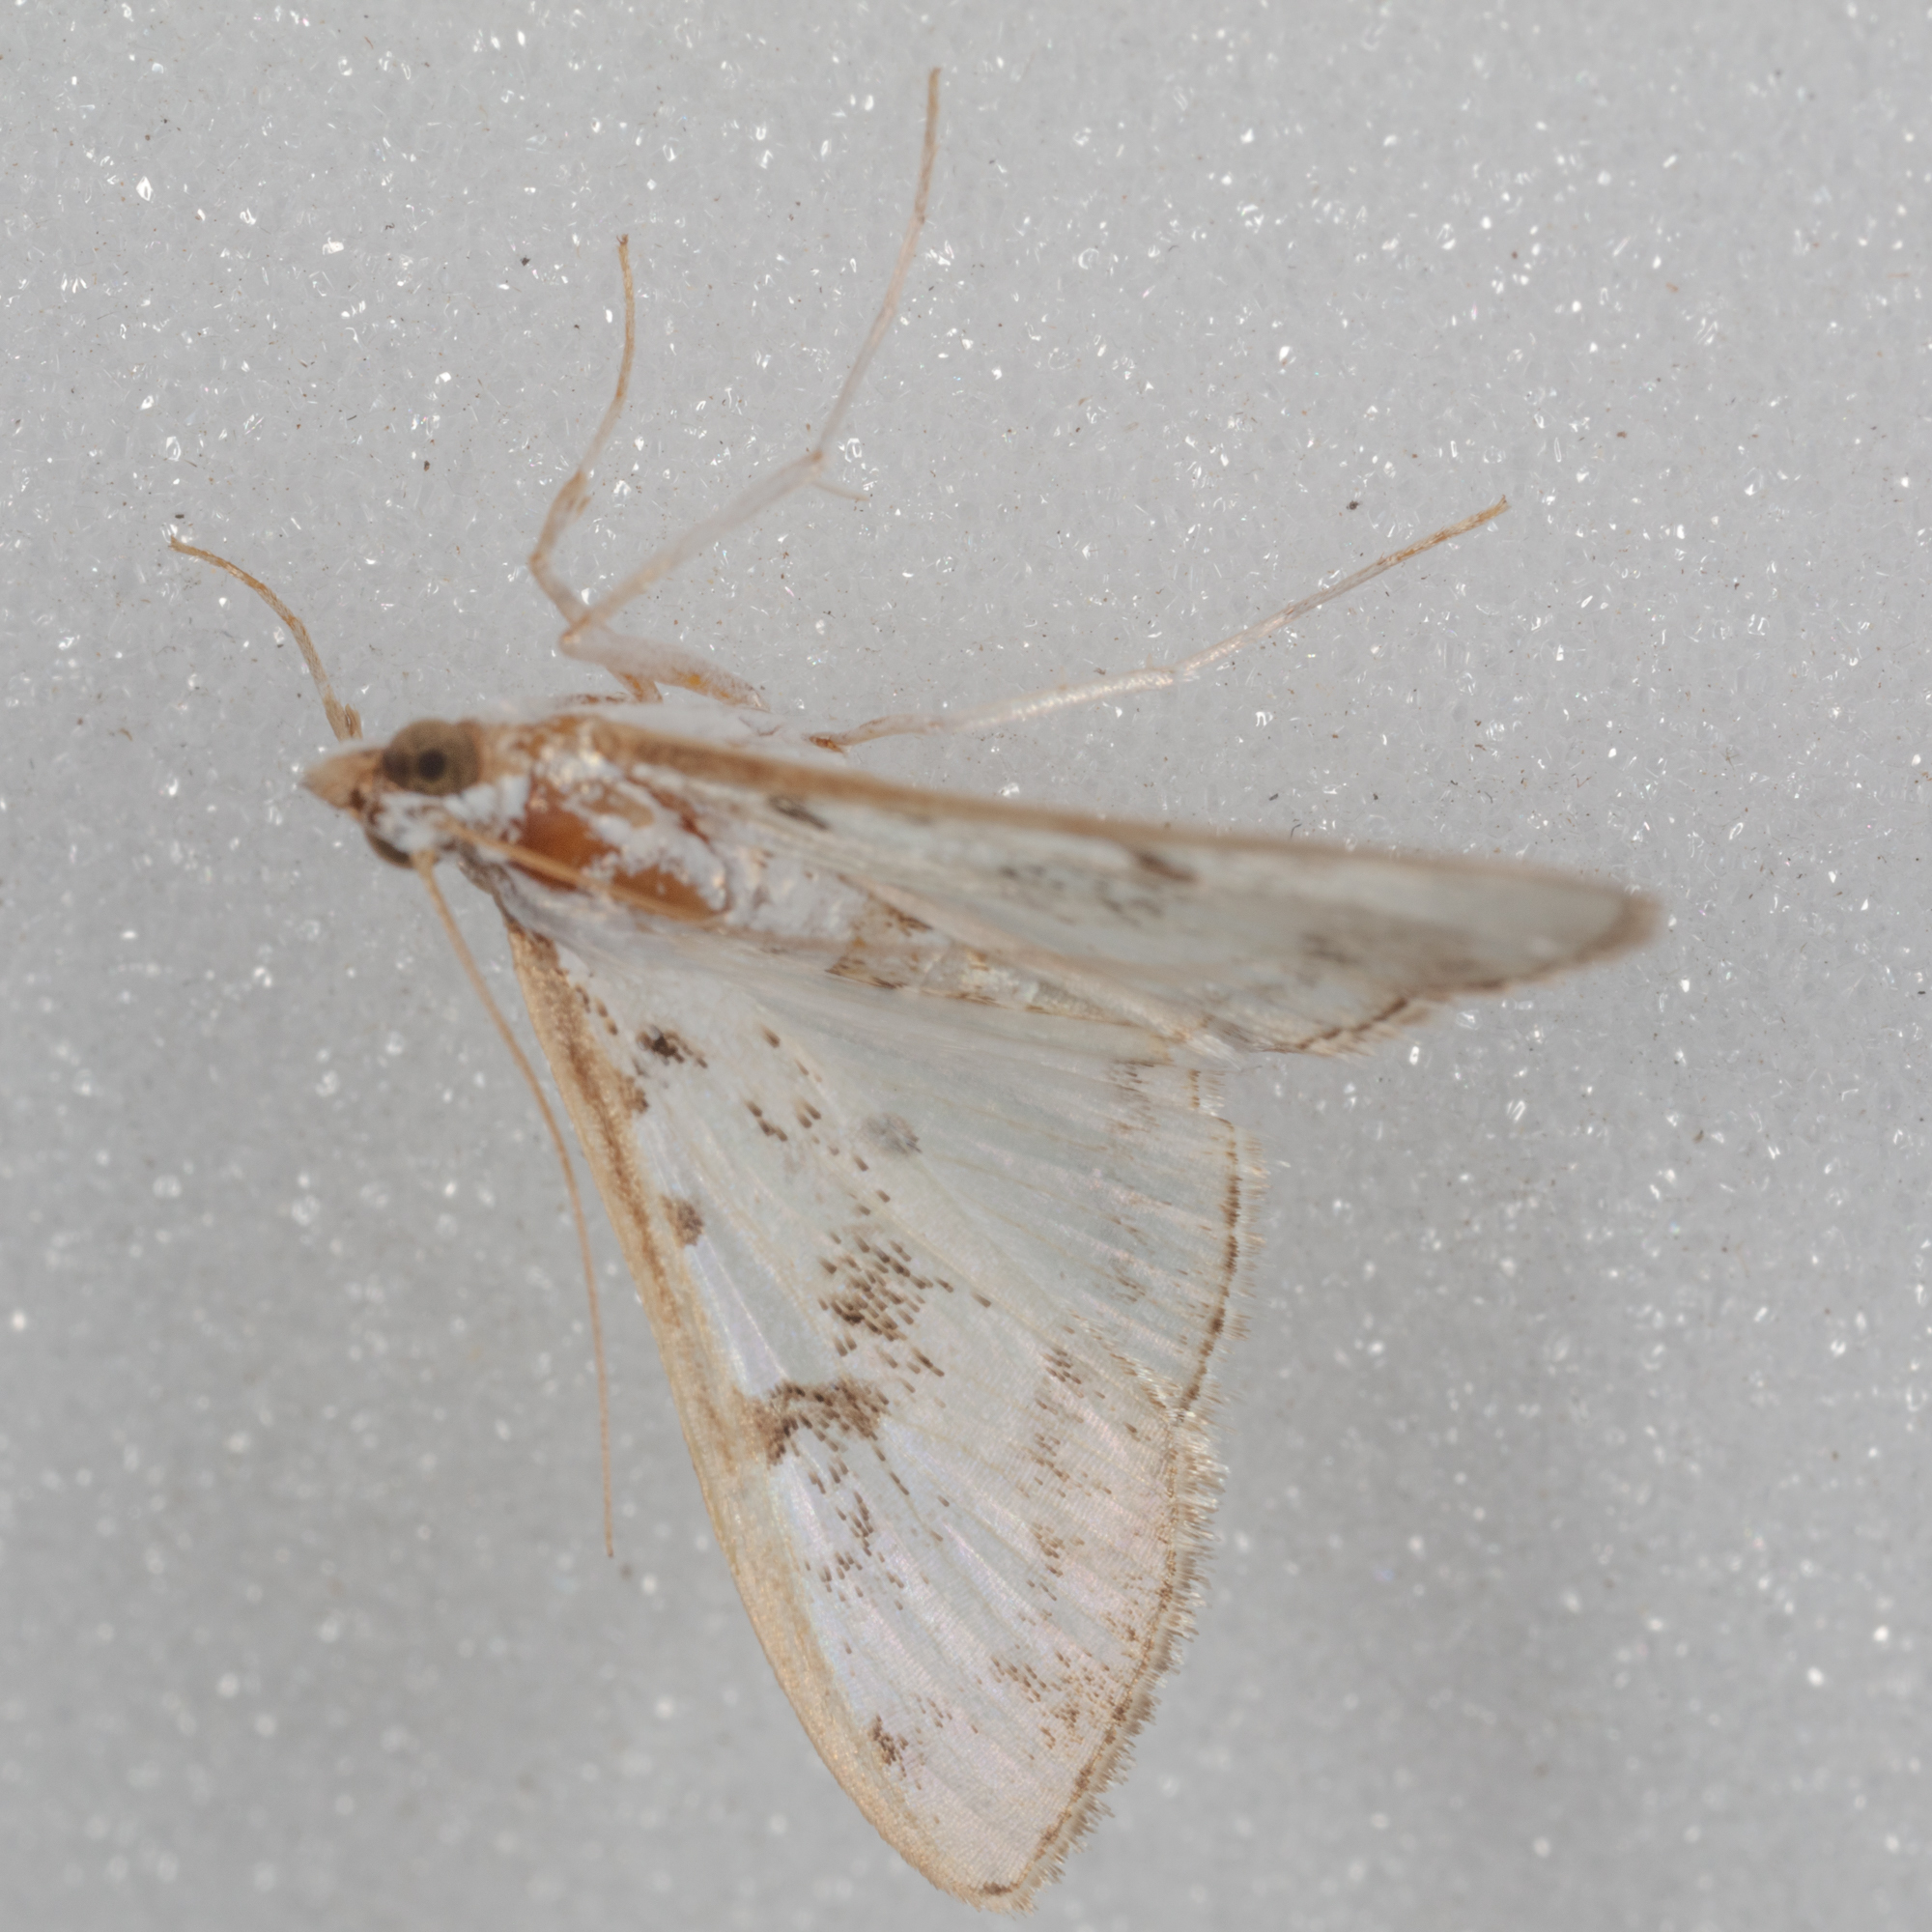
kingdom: Animalia
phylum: Arthropoda
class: Insecta
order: Lepidoptera
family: Crambidae
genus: Palpita
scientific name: Palpita gracilalis
